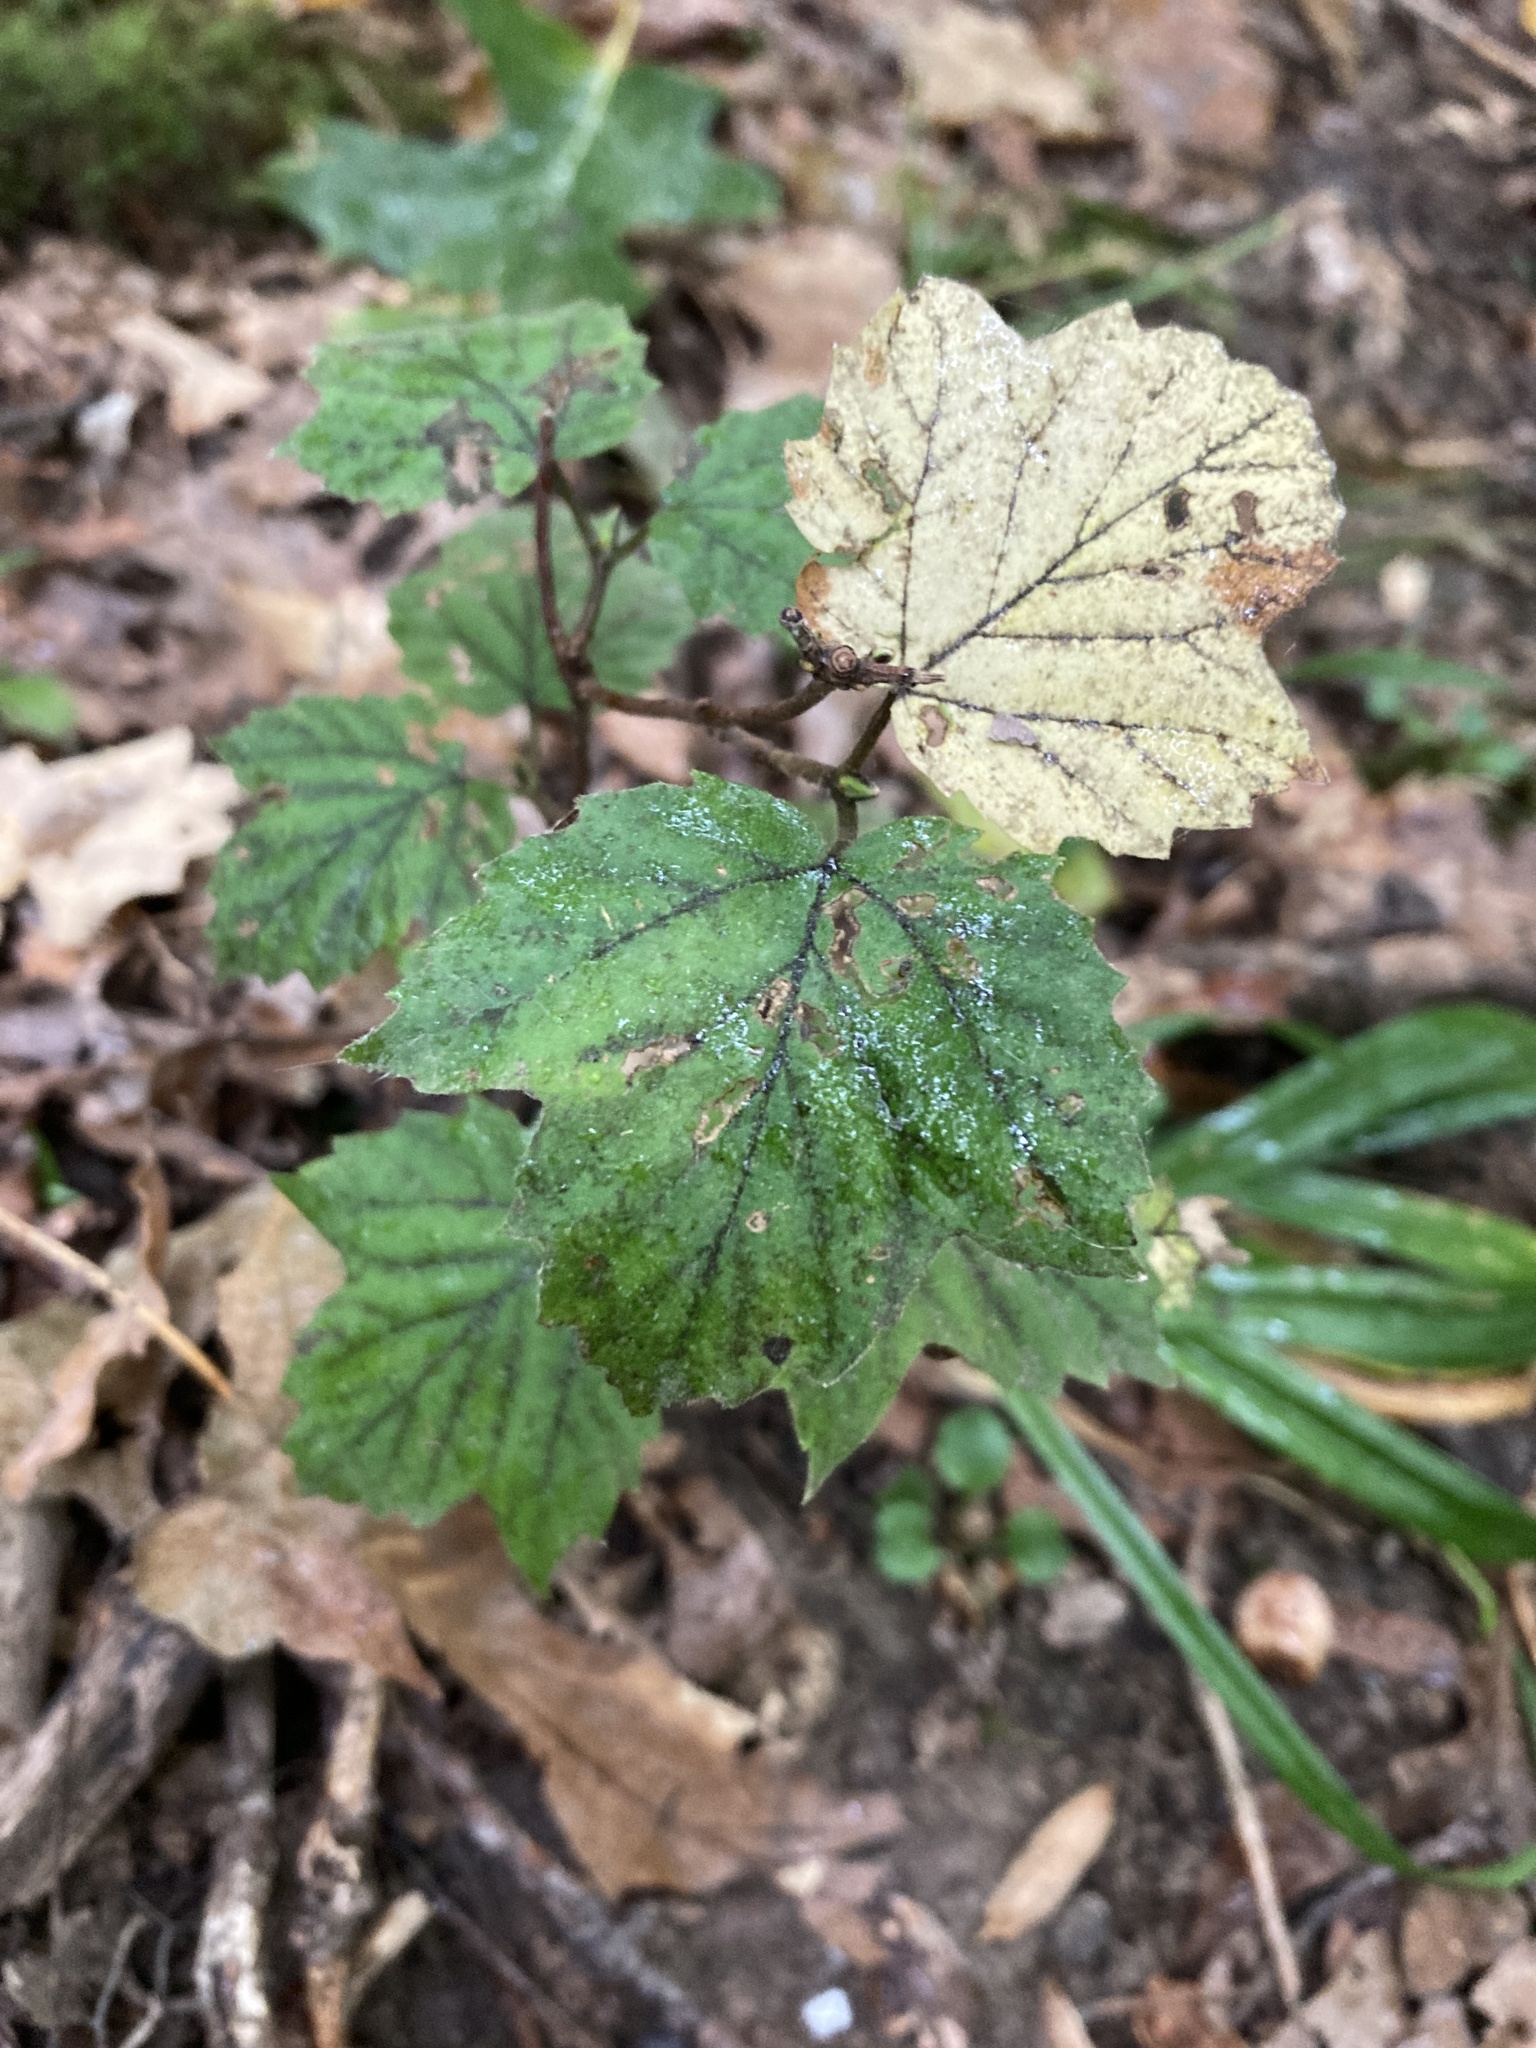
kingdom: Plantae
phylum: Tracheophyta
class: Magnoliopsida
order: Dipsacales
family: Viburnaceae
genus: Viburnum
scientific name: Viburnum acerifolium
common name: Dockmackie
